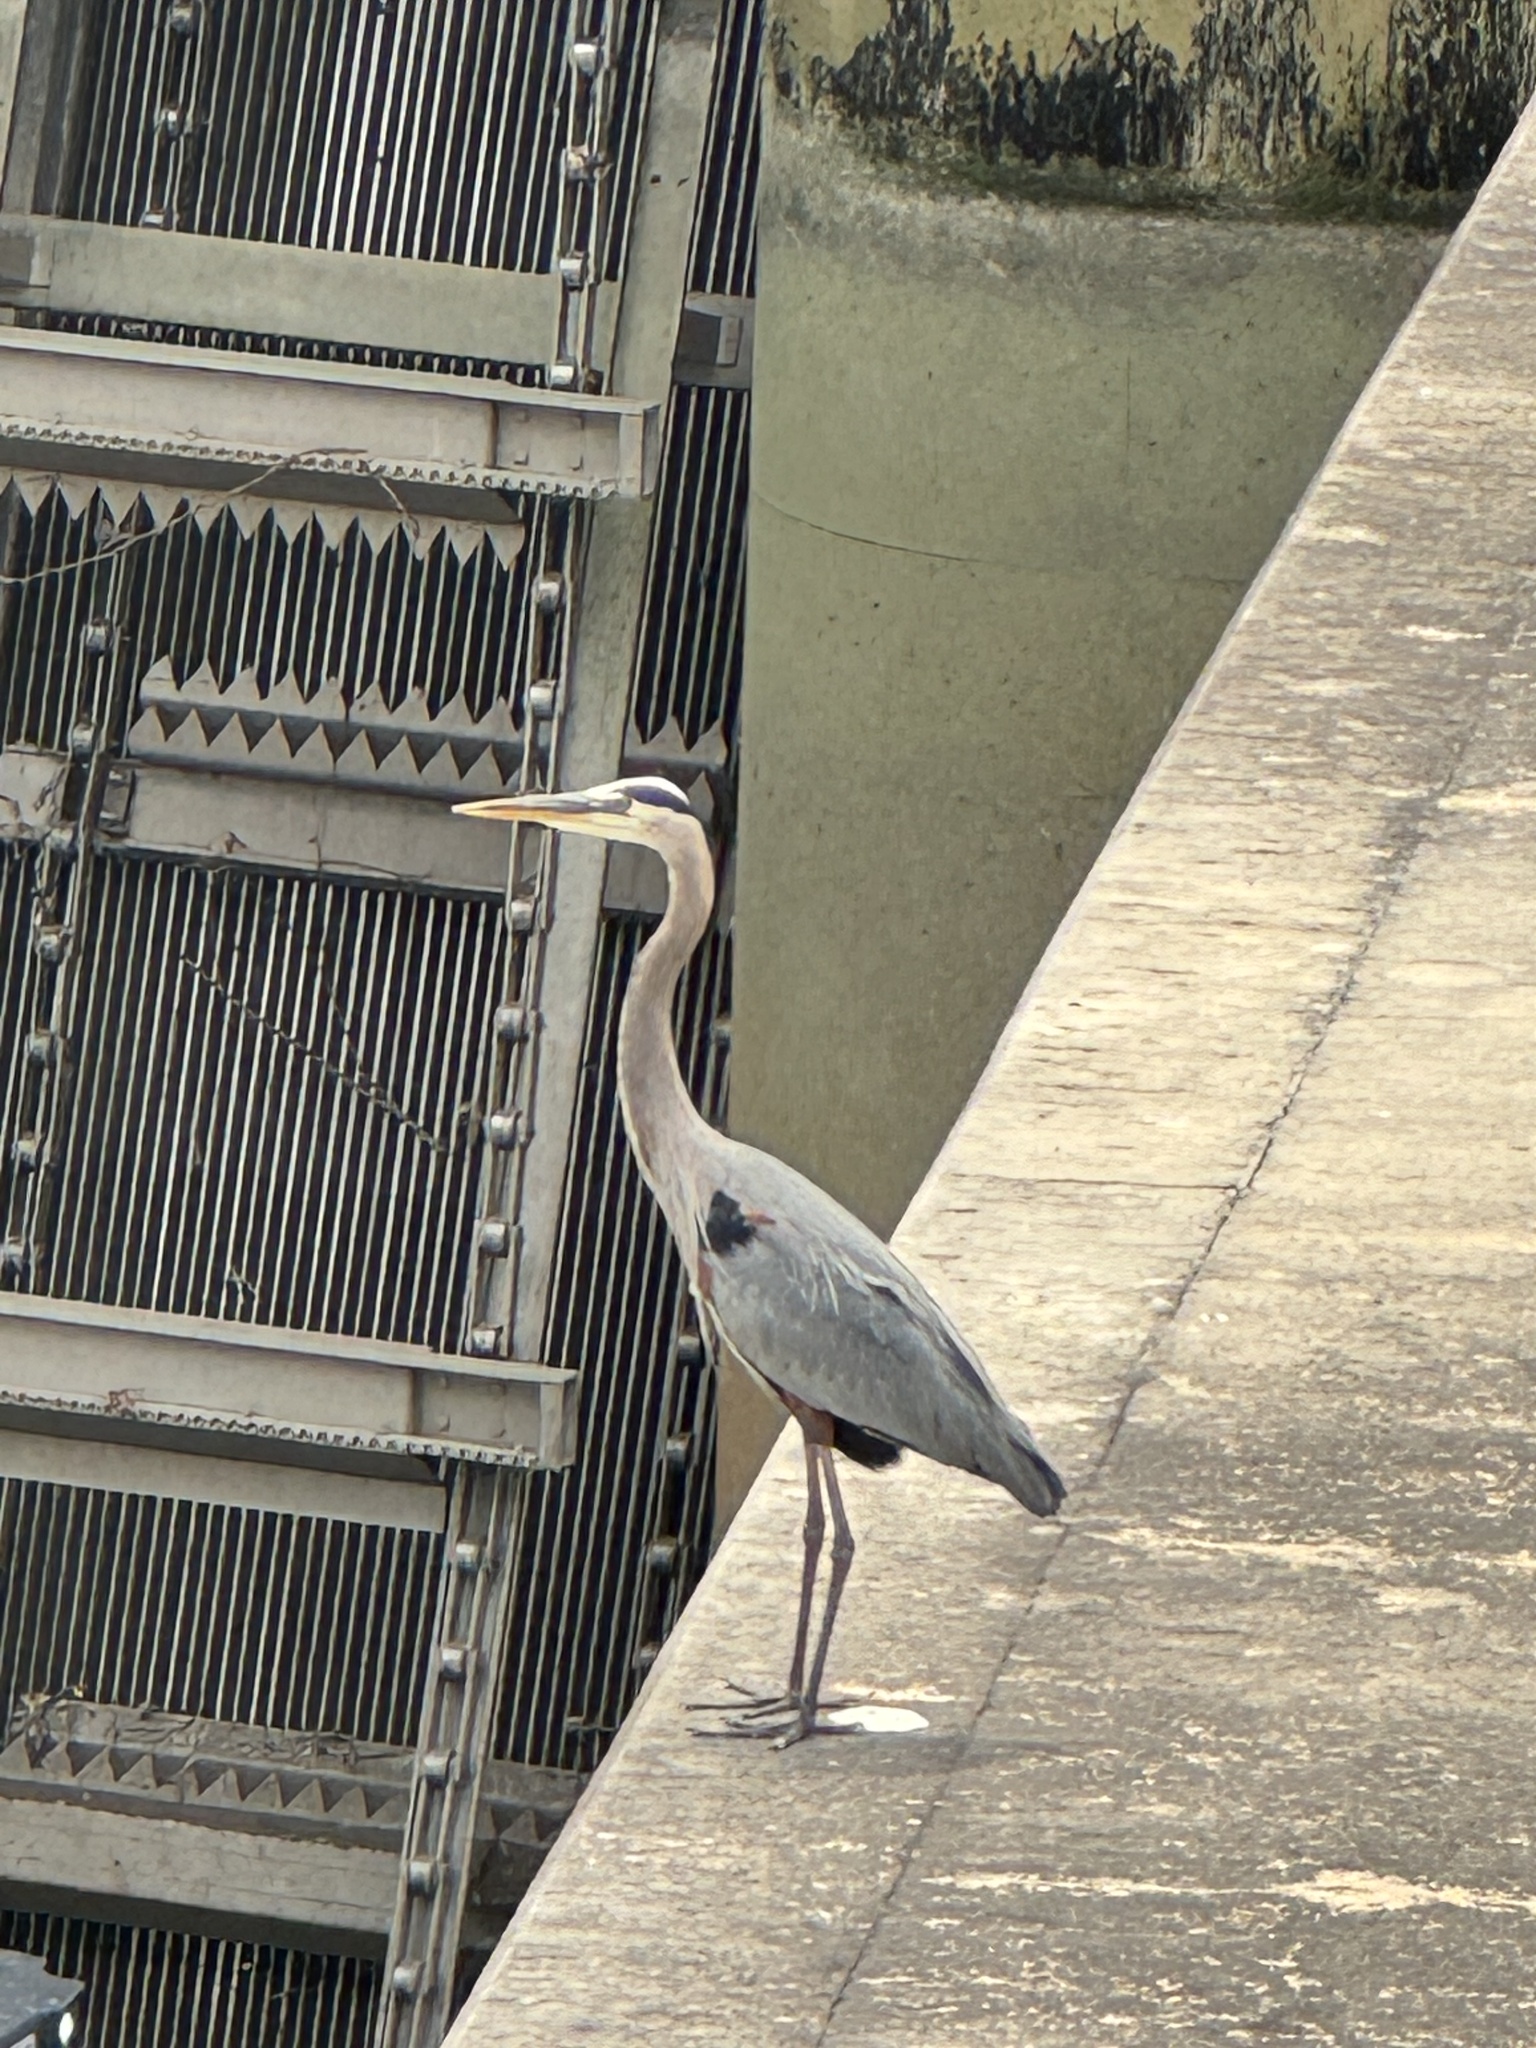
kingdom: Animalia
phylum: Chordata
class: Aves
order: Pelecaniformes
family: Ardeidae
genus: Ardea
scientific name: Ardea herodias
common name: Great blue heron
